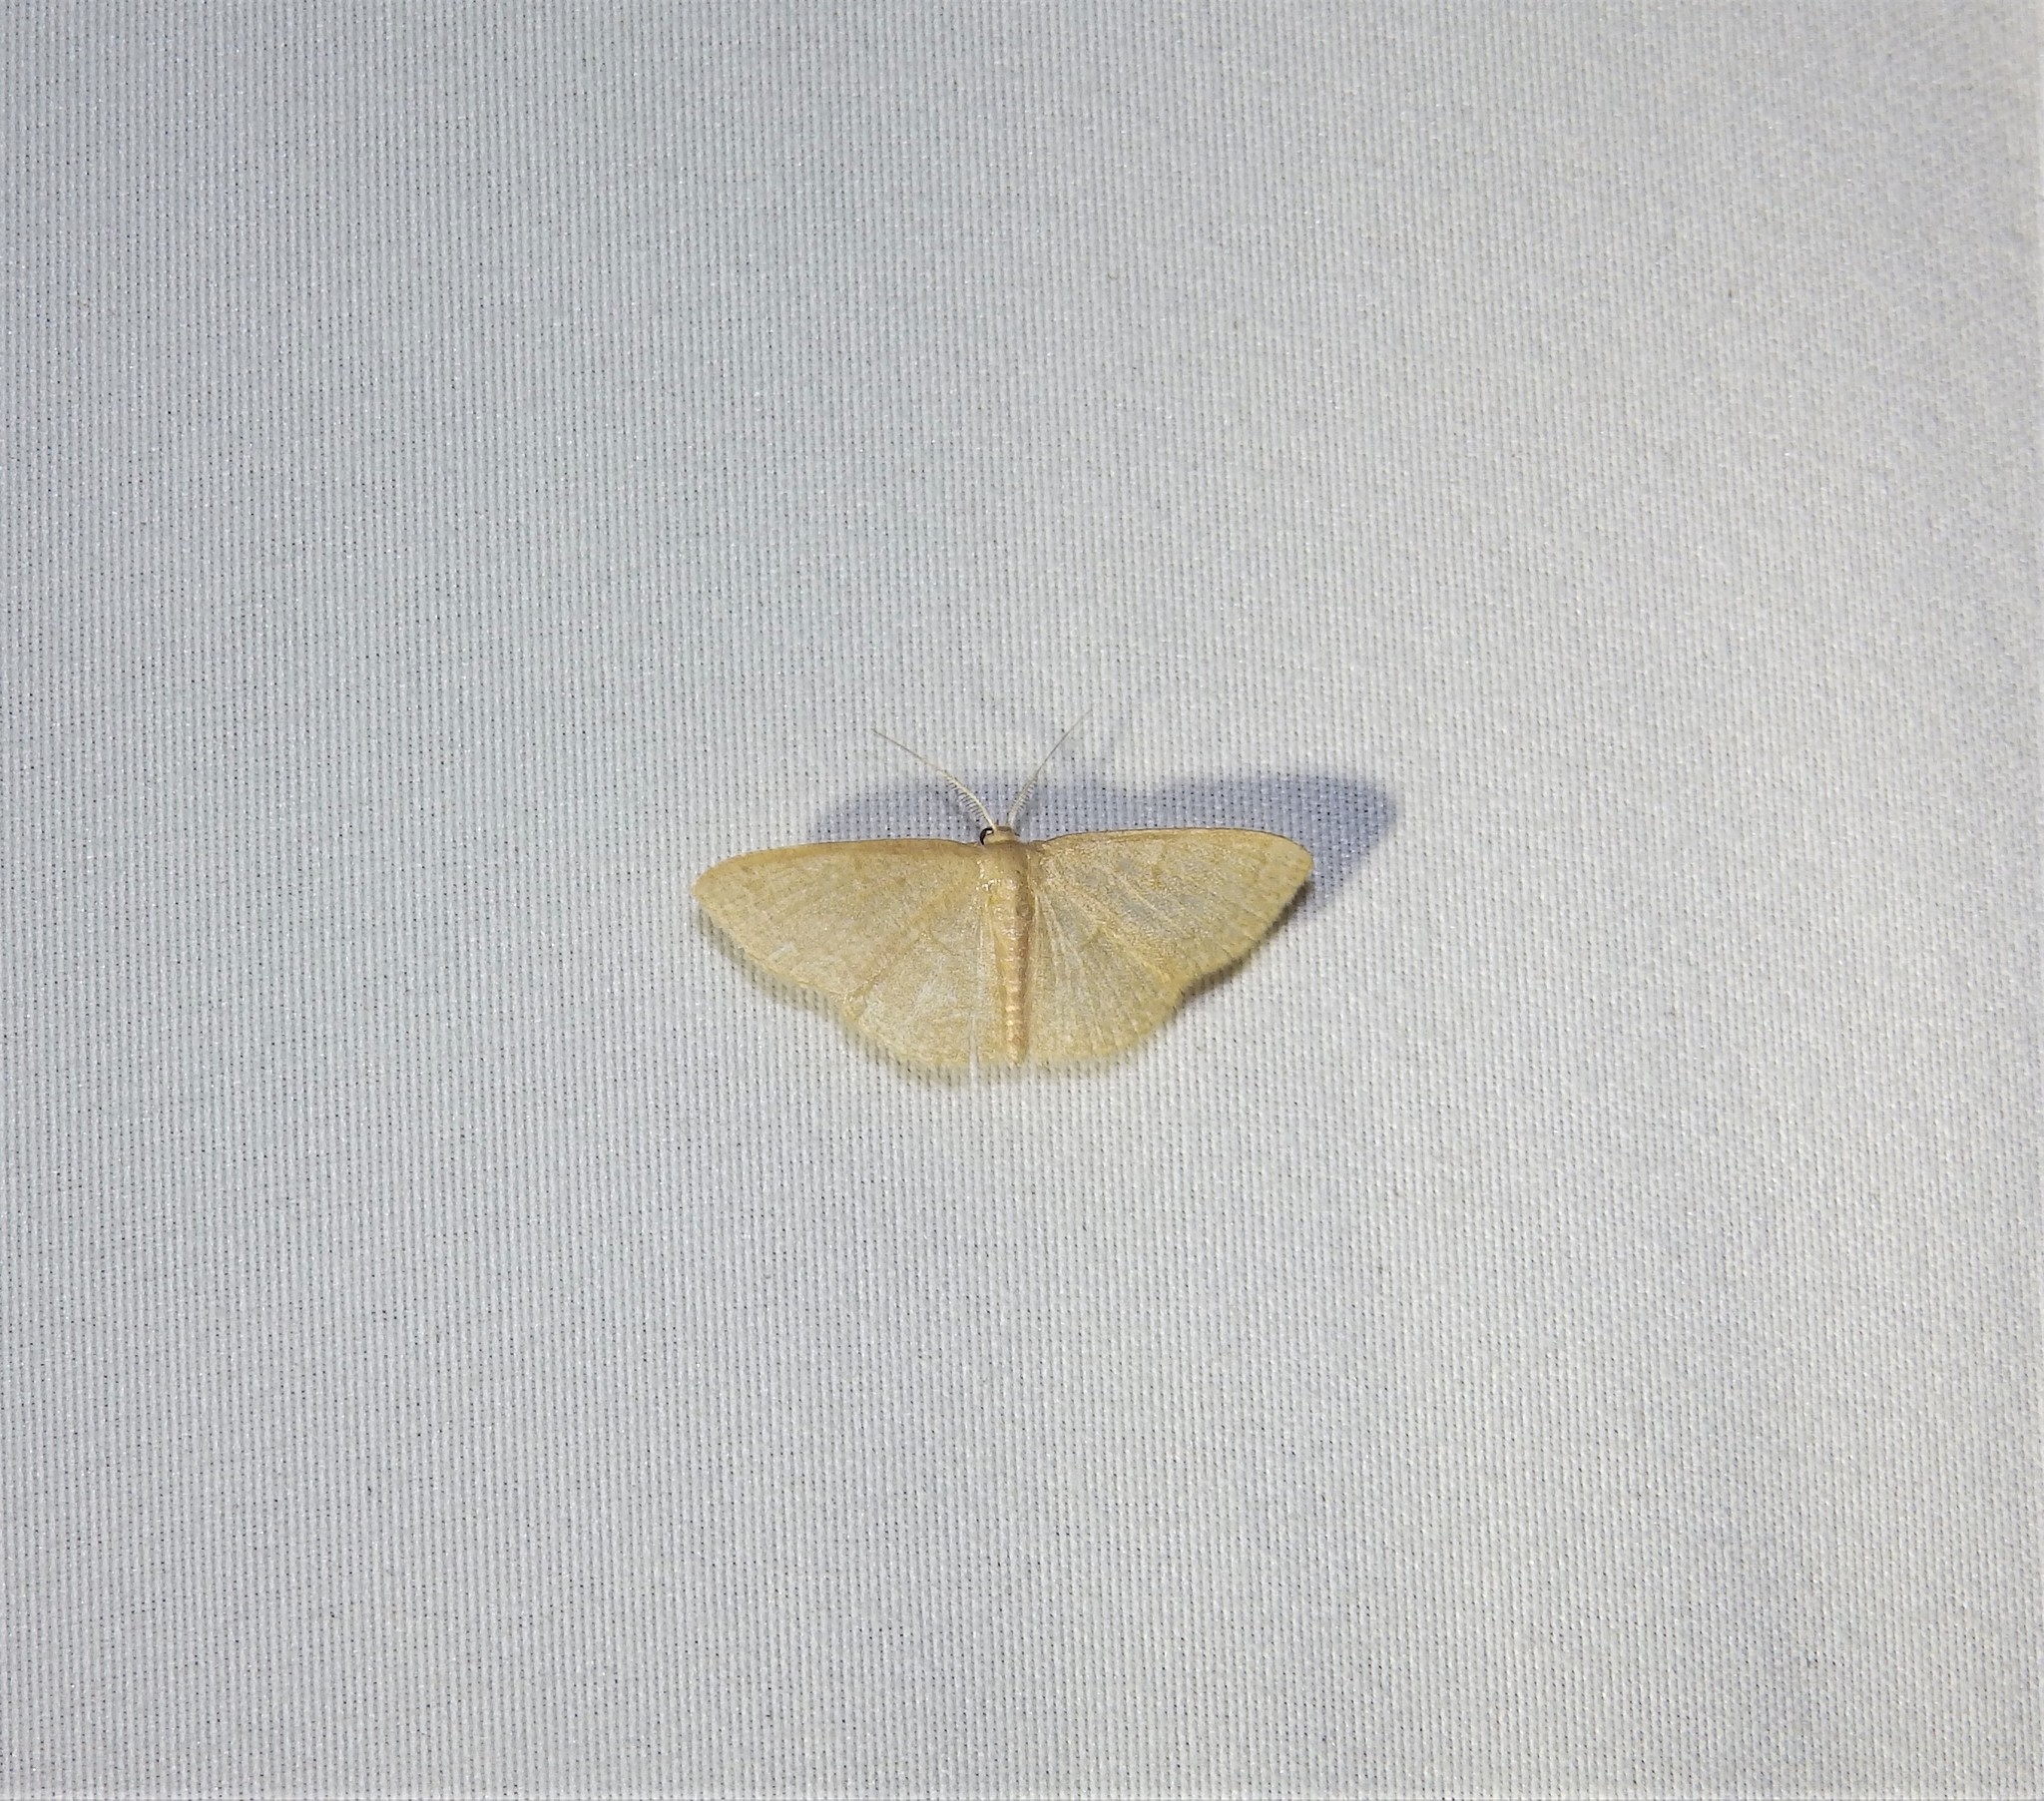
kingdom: Animalia
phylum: Arthropoda
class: Insecta
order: Lepidoptera
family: Geometridae
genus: Pleuroprucha
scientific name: Pleuroprucha insulsaria
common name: Common tan wave
